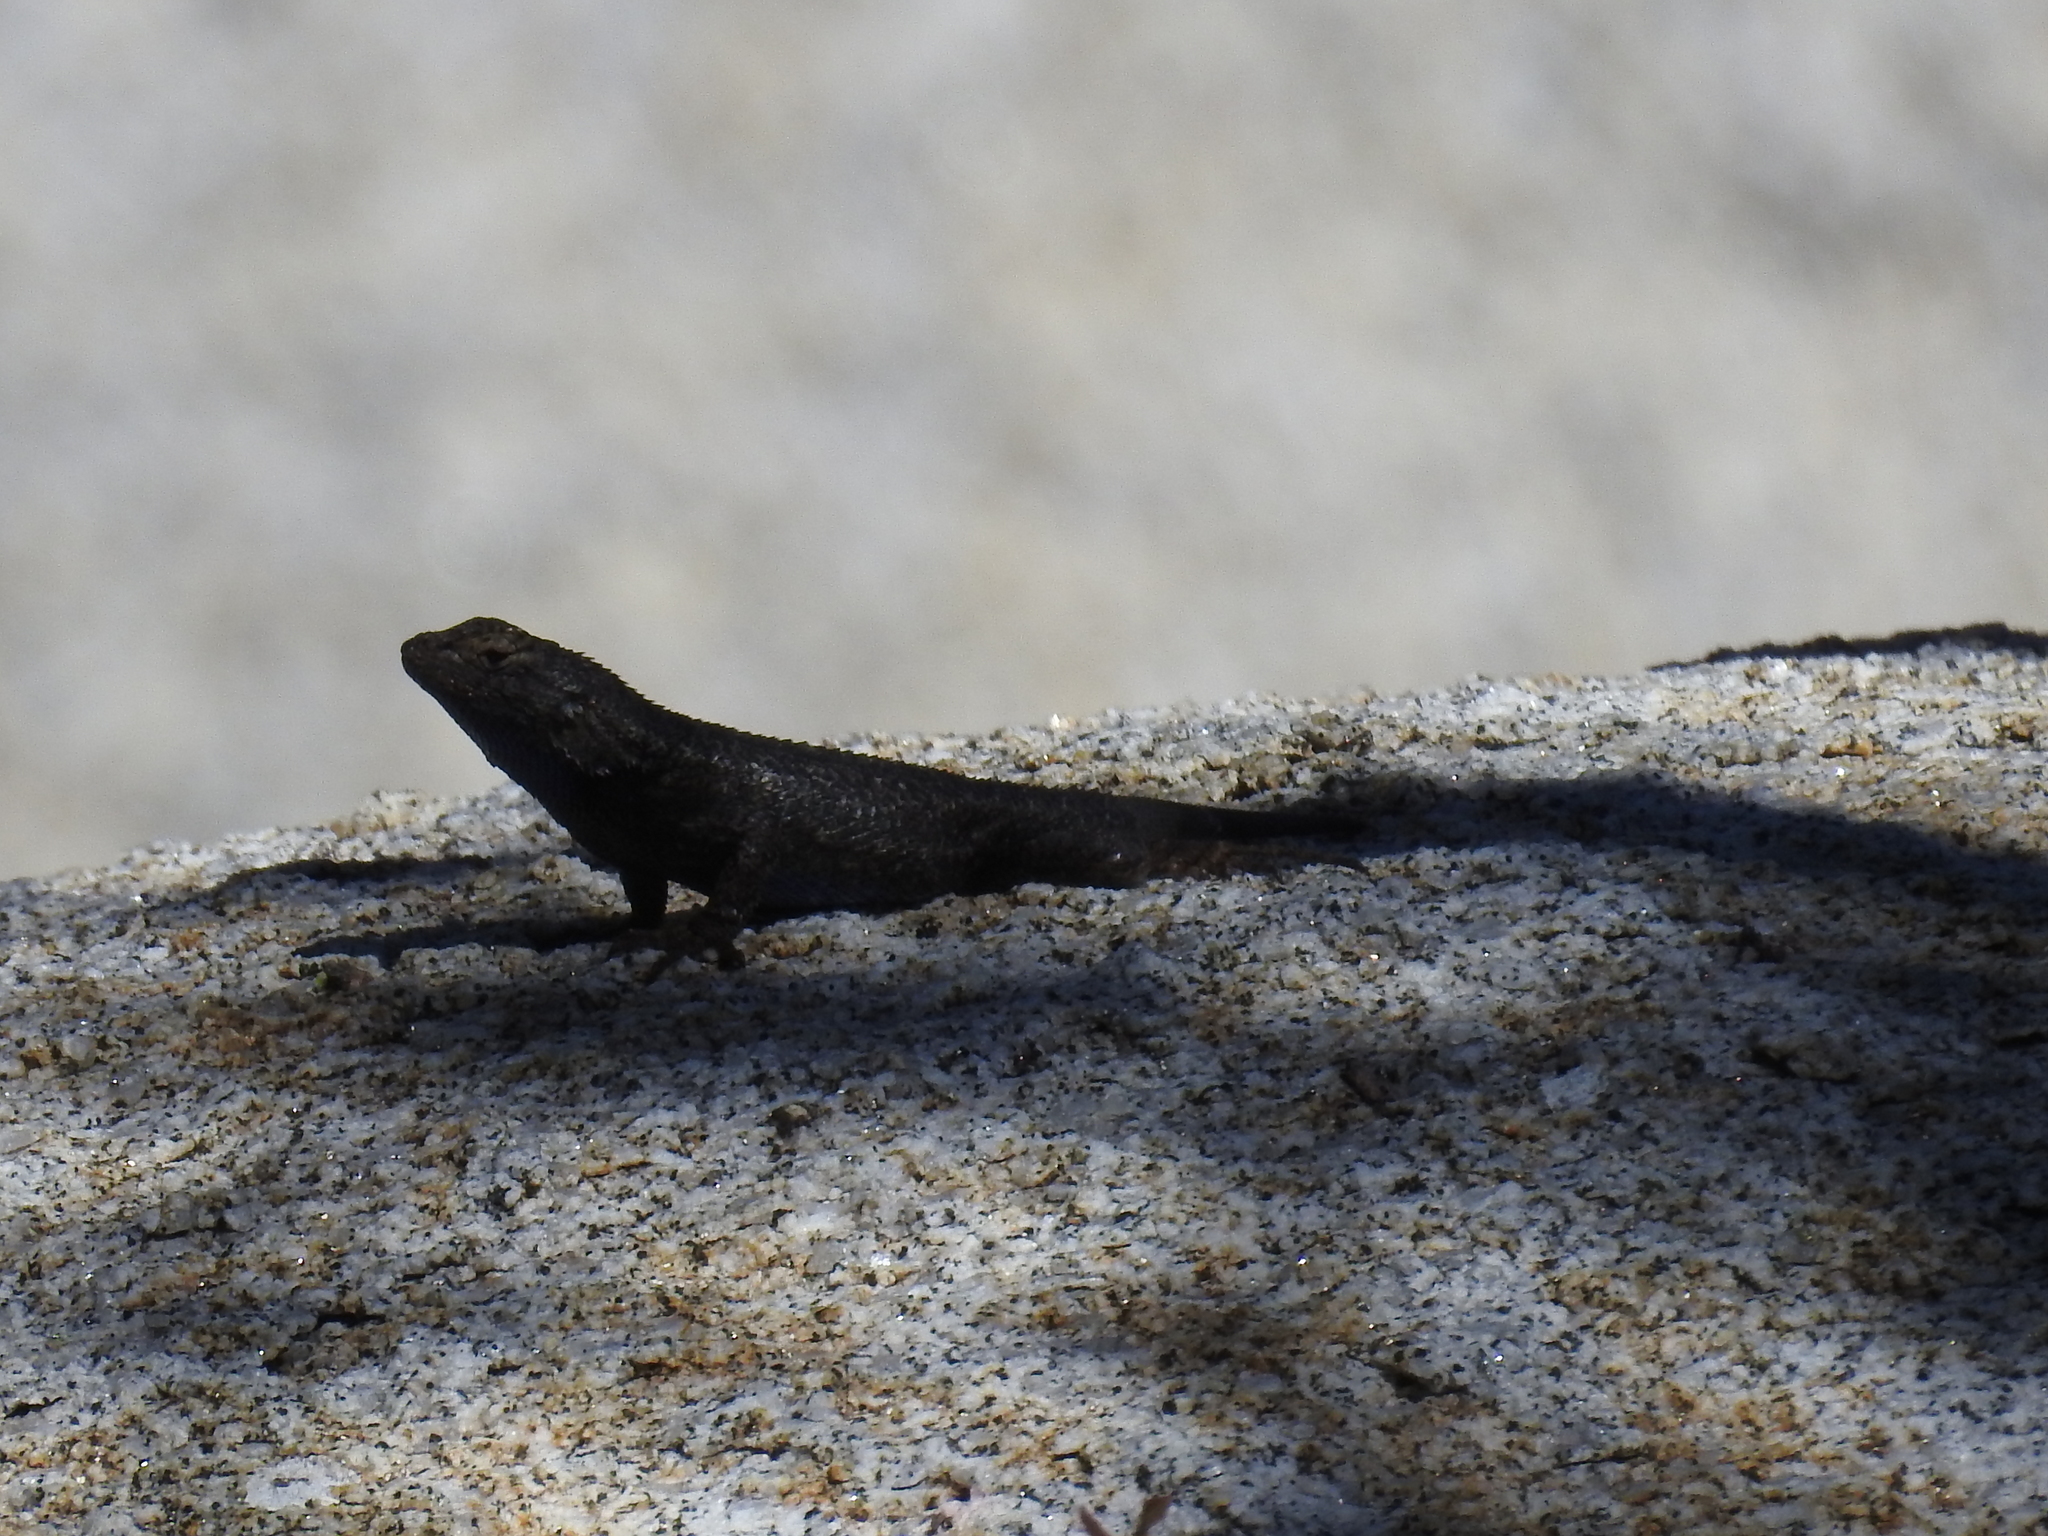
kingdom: Animalia
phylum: Chordata
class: Squamata
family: Phrynosomatidae
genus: Sceloporus
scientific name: Sceloporus occidentalis
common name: Western fence lizard
